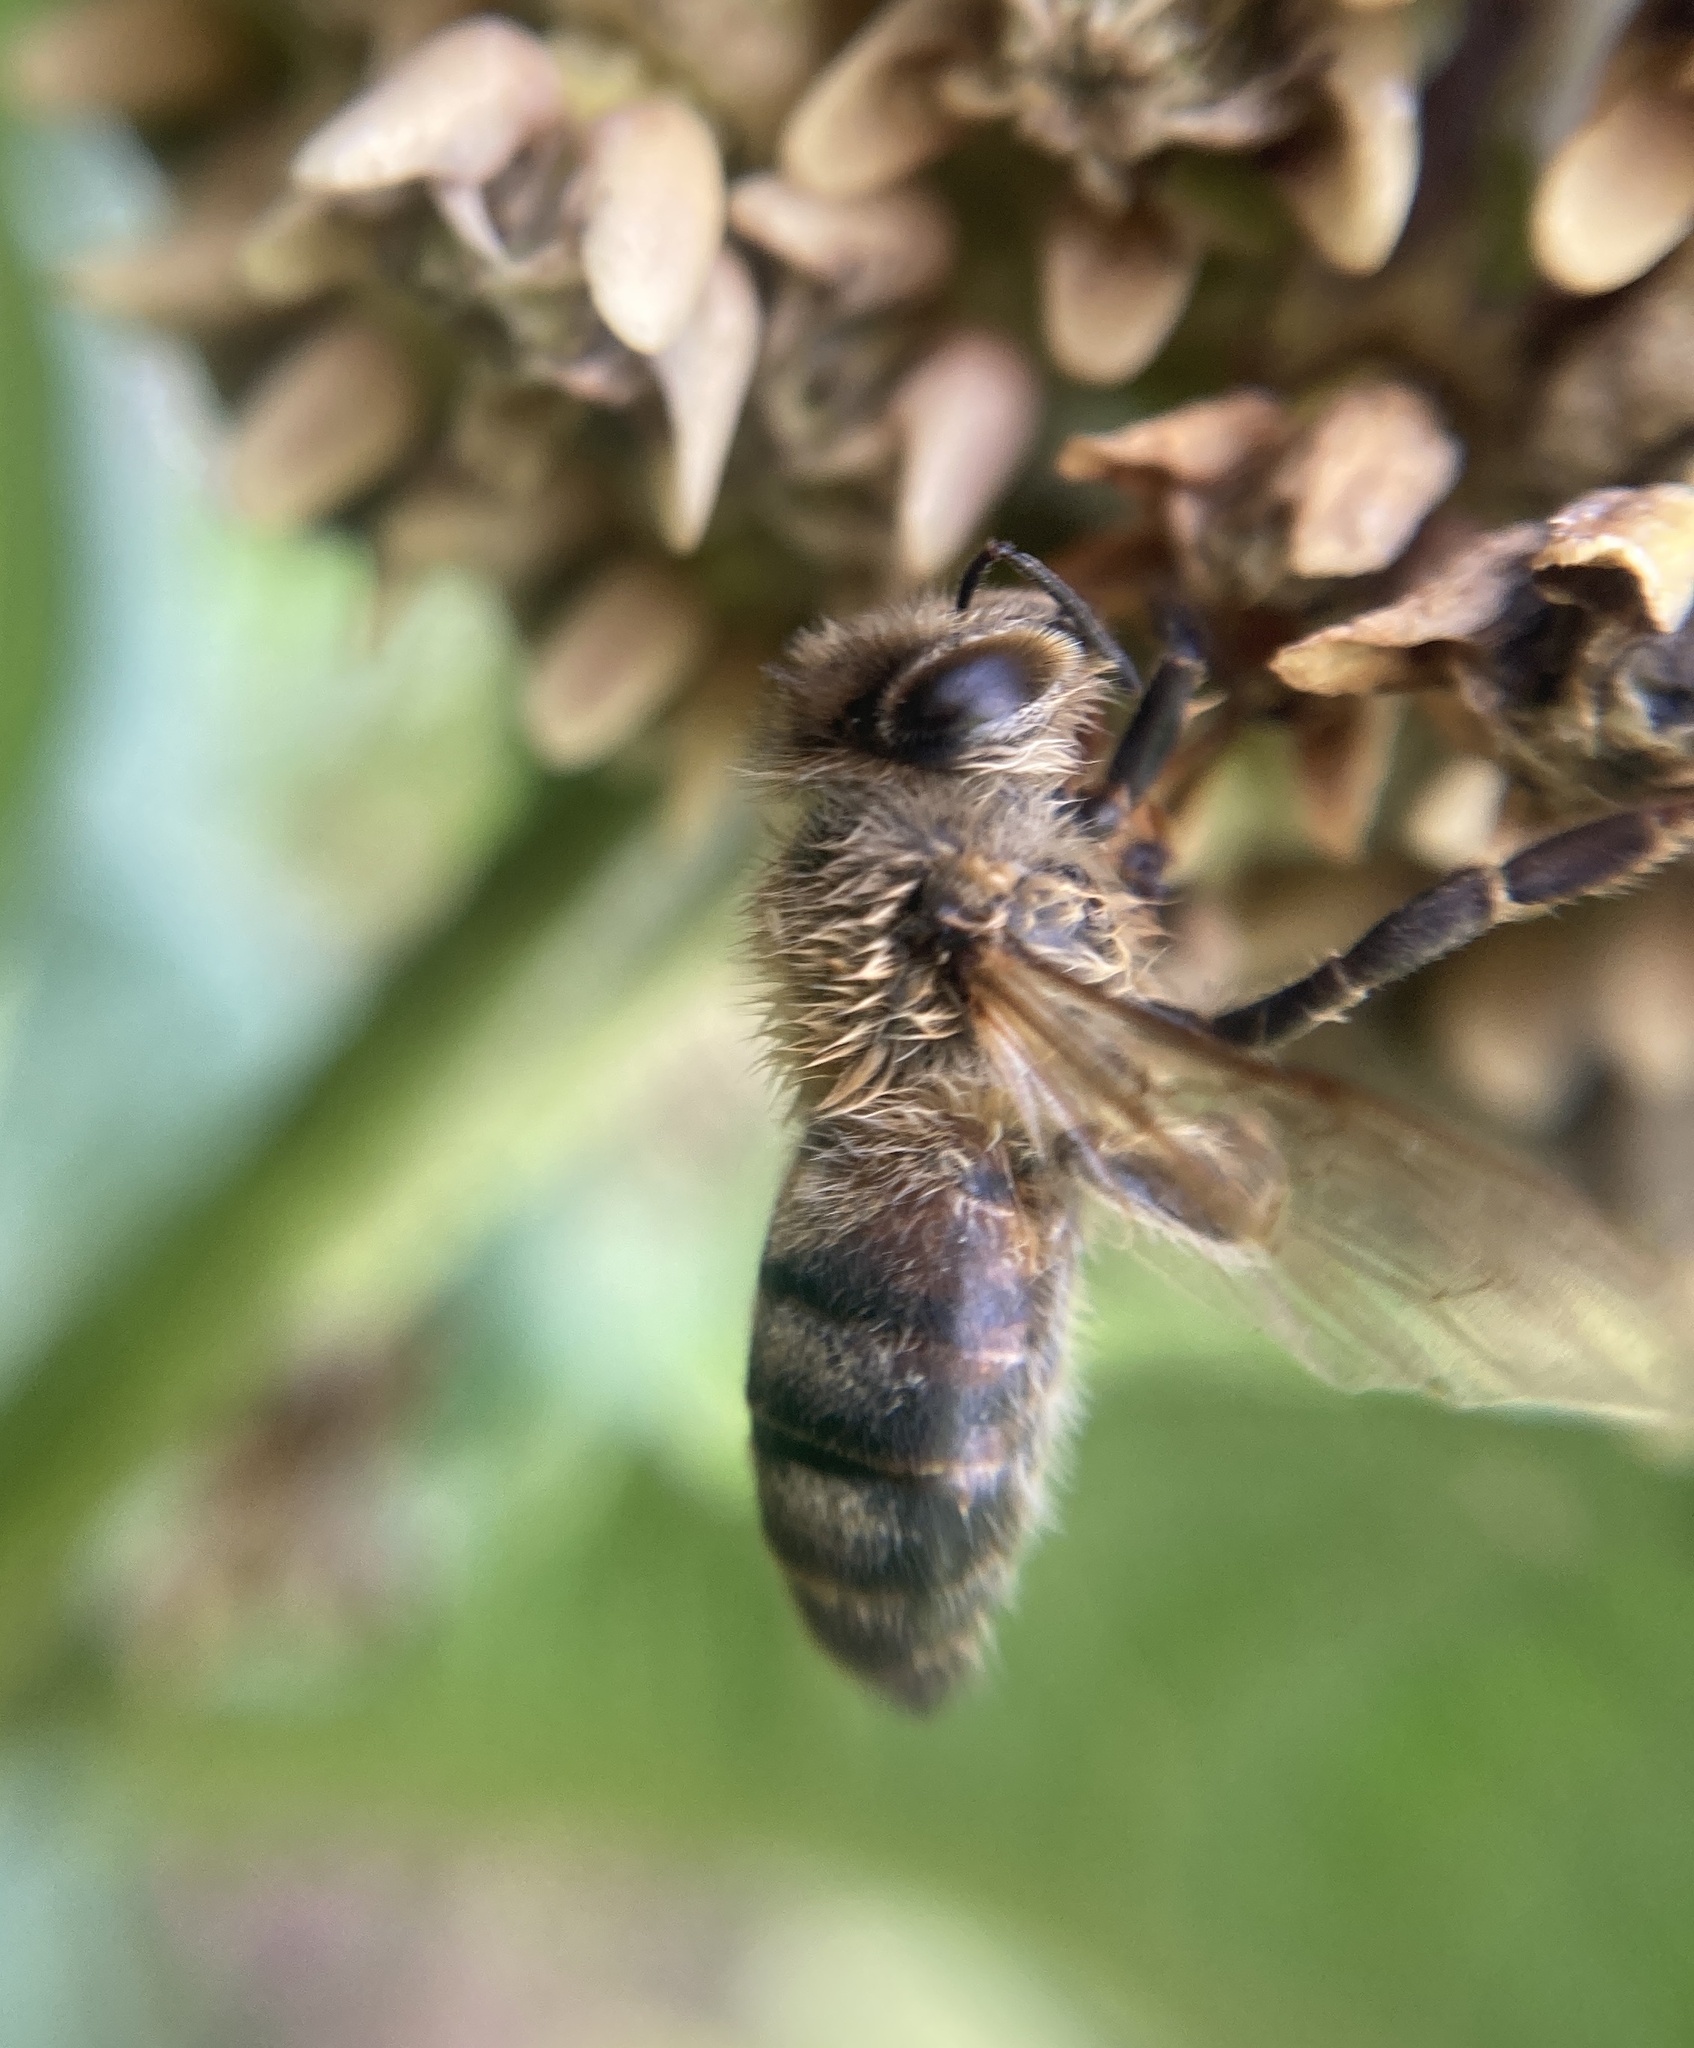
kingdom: Animalia
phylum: Arthropoda
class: Insecta
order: Hymenoptera
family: Apidae
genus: Apis
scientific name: Apis mellifera
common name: Honey bee
